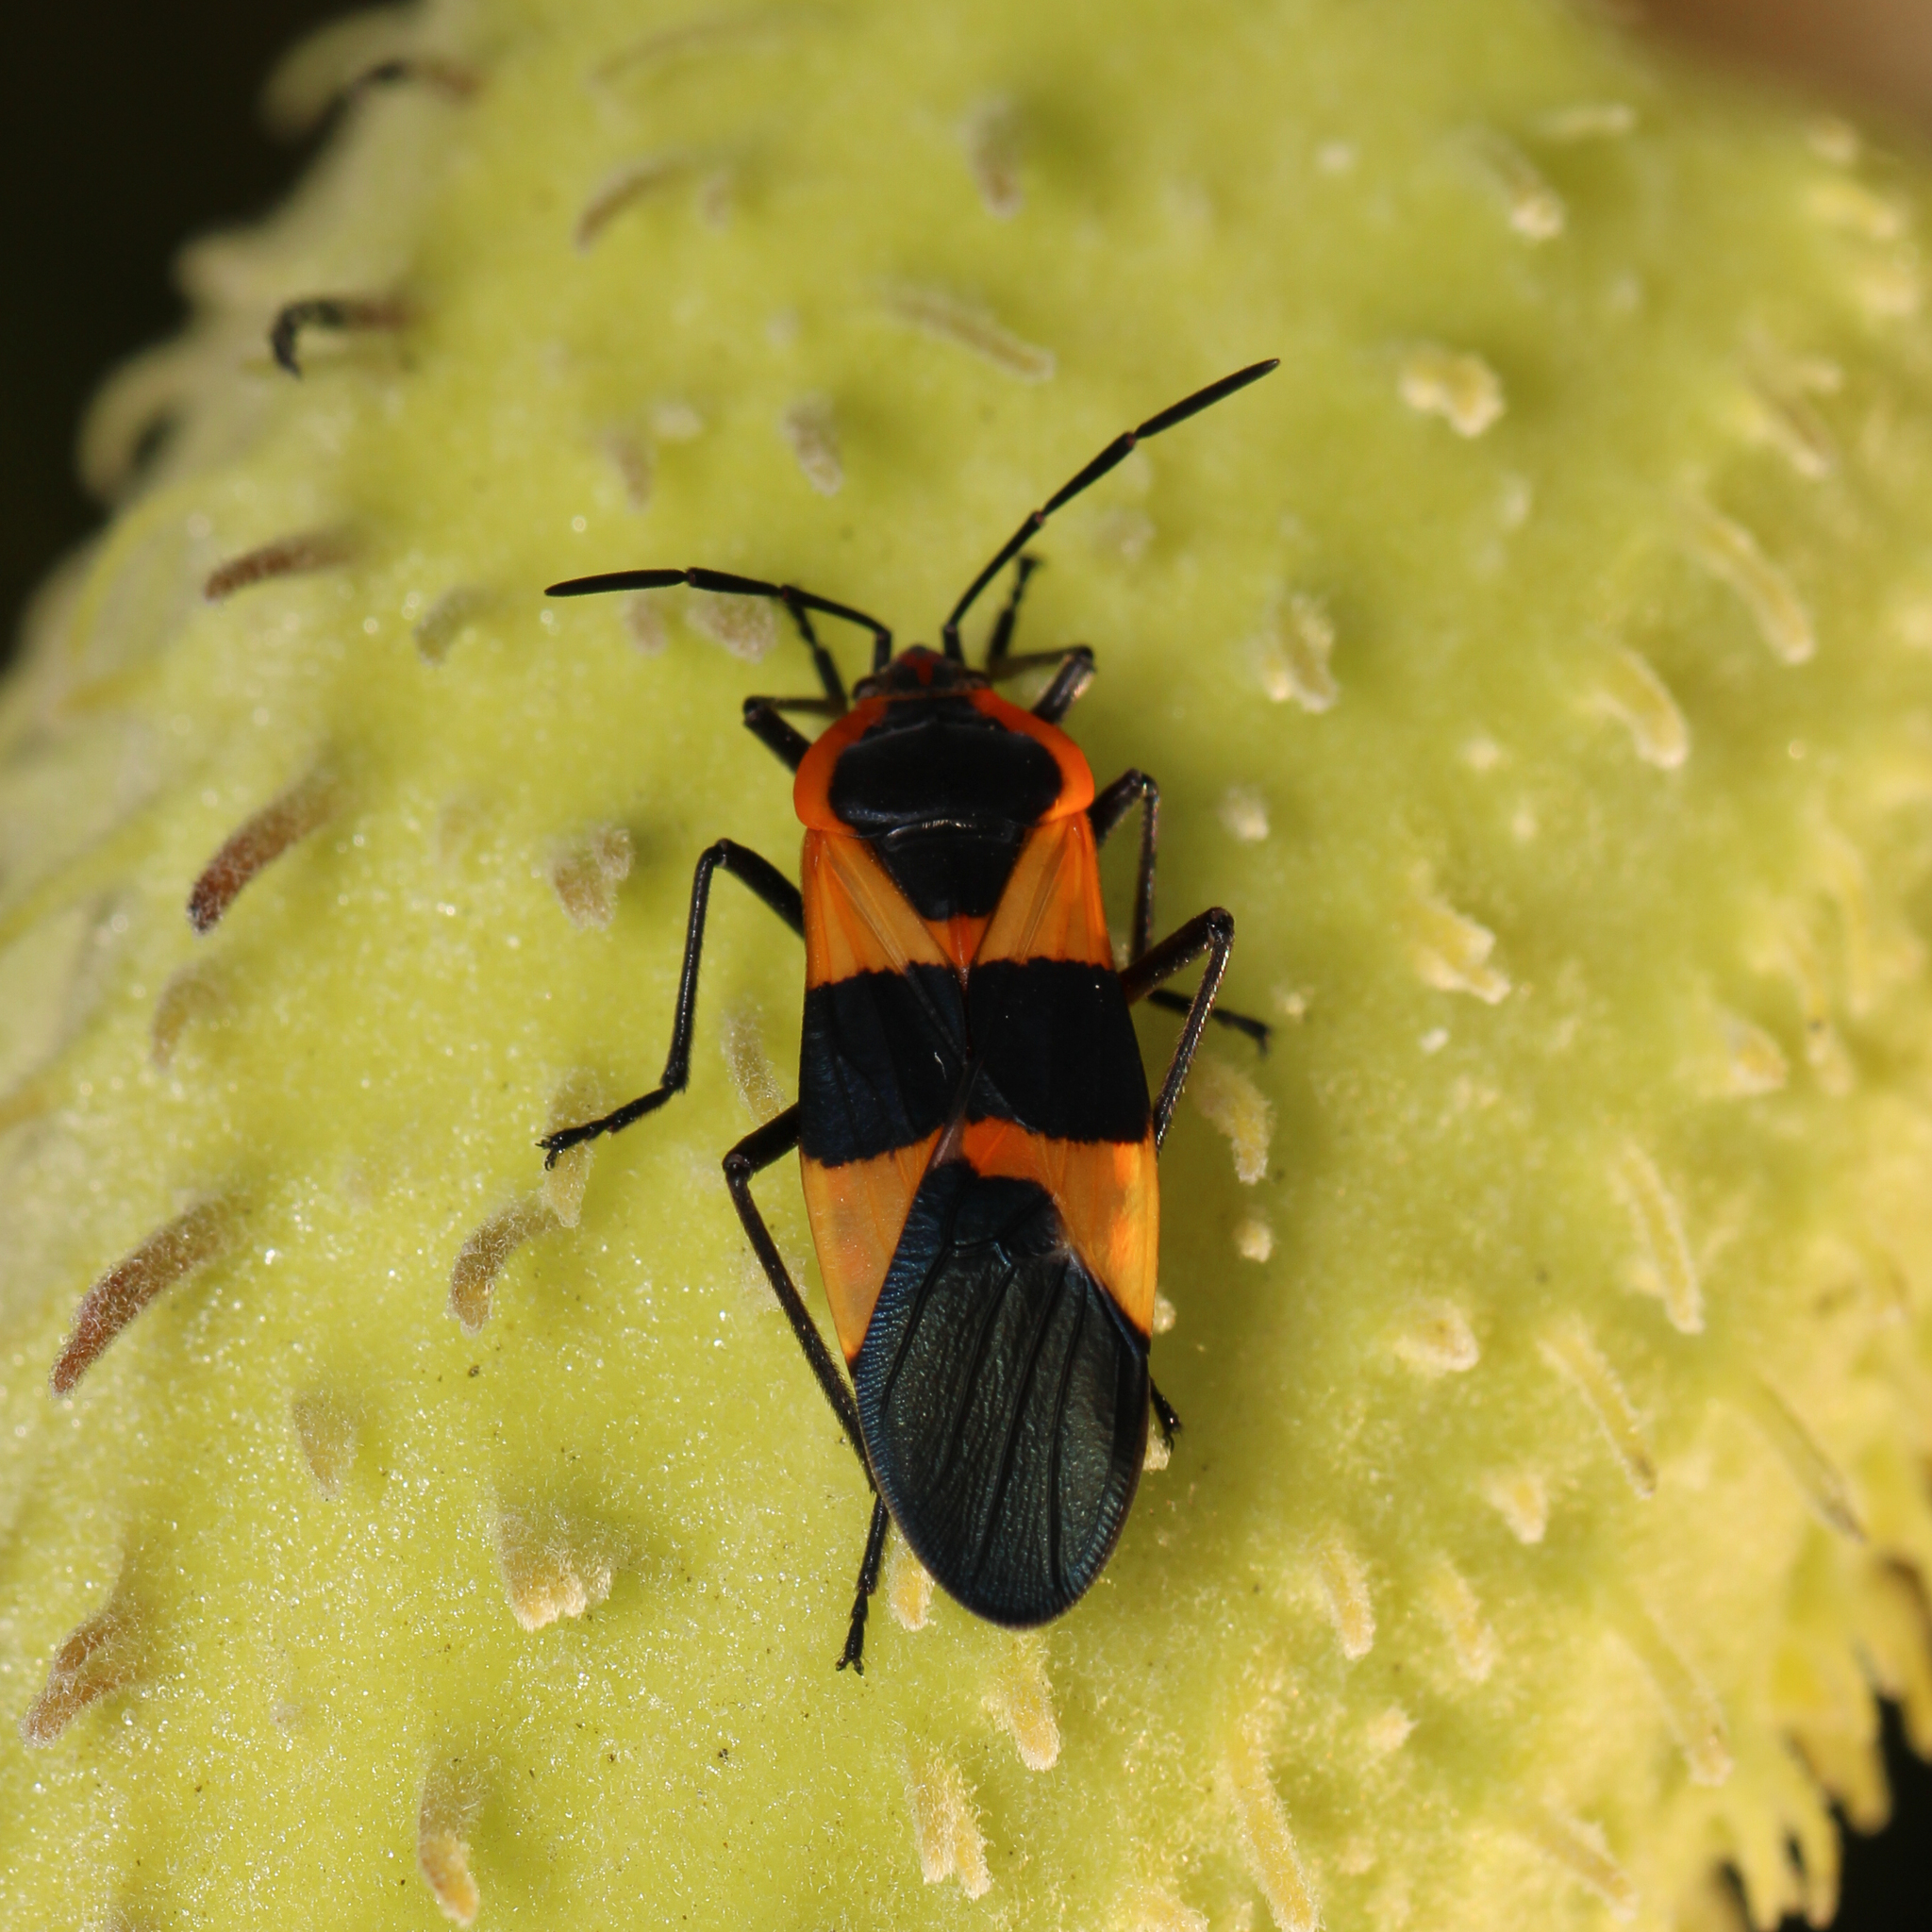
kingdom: Animalia
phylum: Arthropoda
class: Insecta
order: Hemiptera
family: Lygaeidae
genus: Oncopeltus
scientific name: Oncopeltus fasciatus
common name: Large milkweed bug
